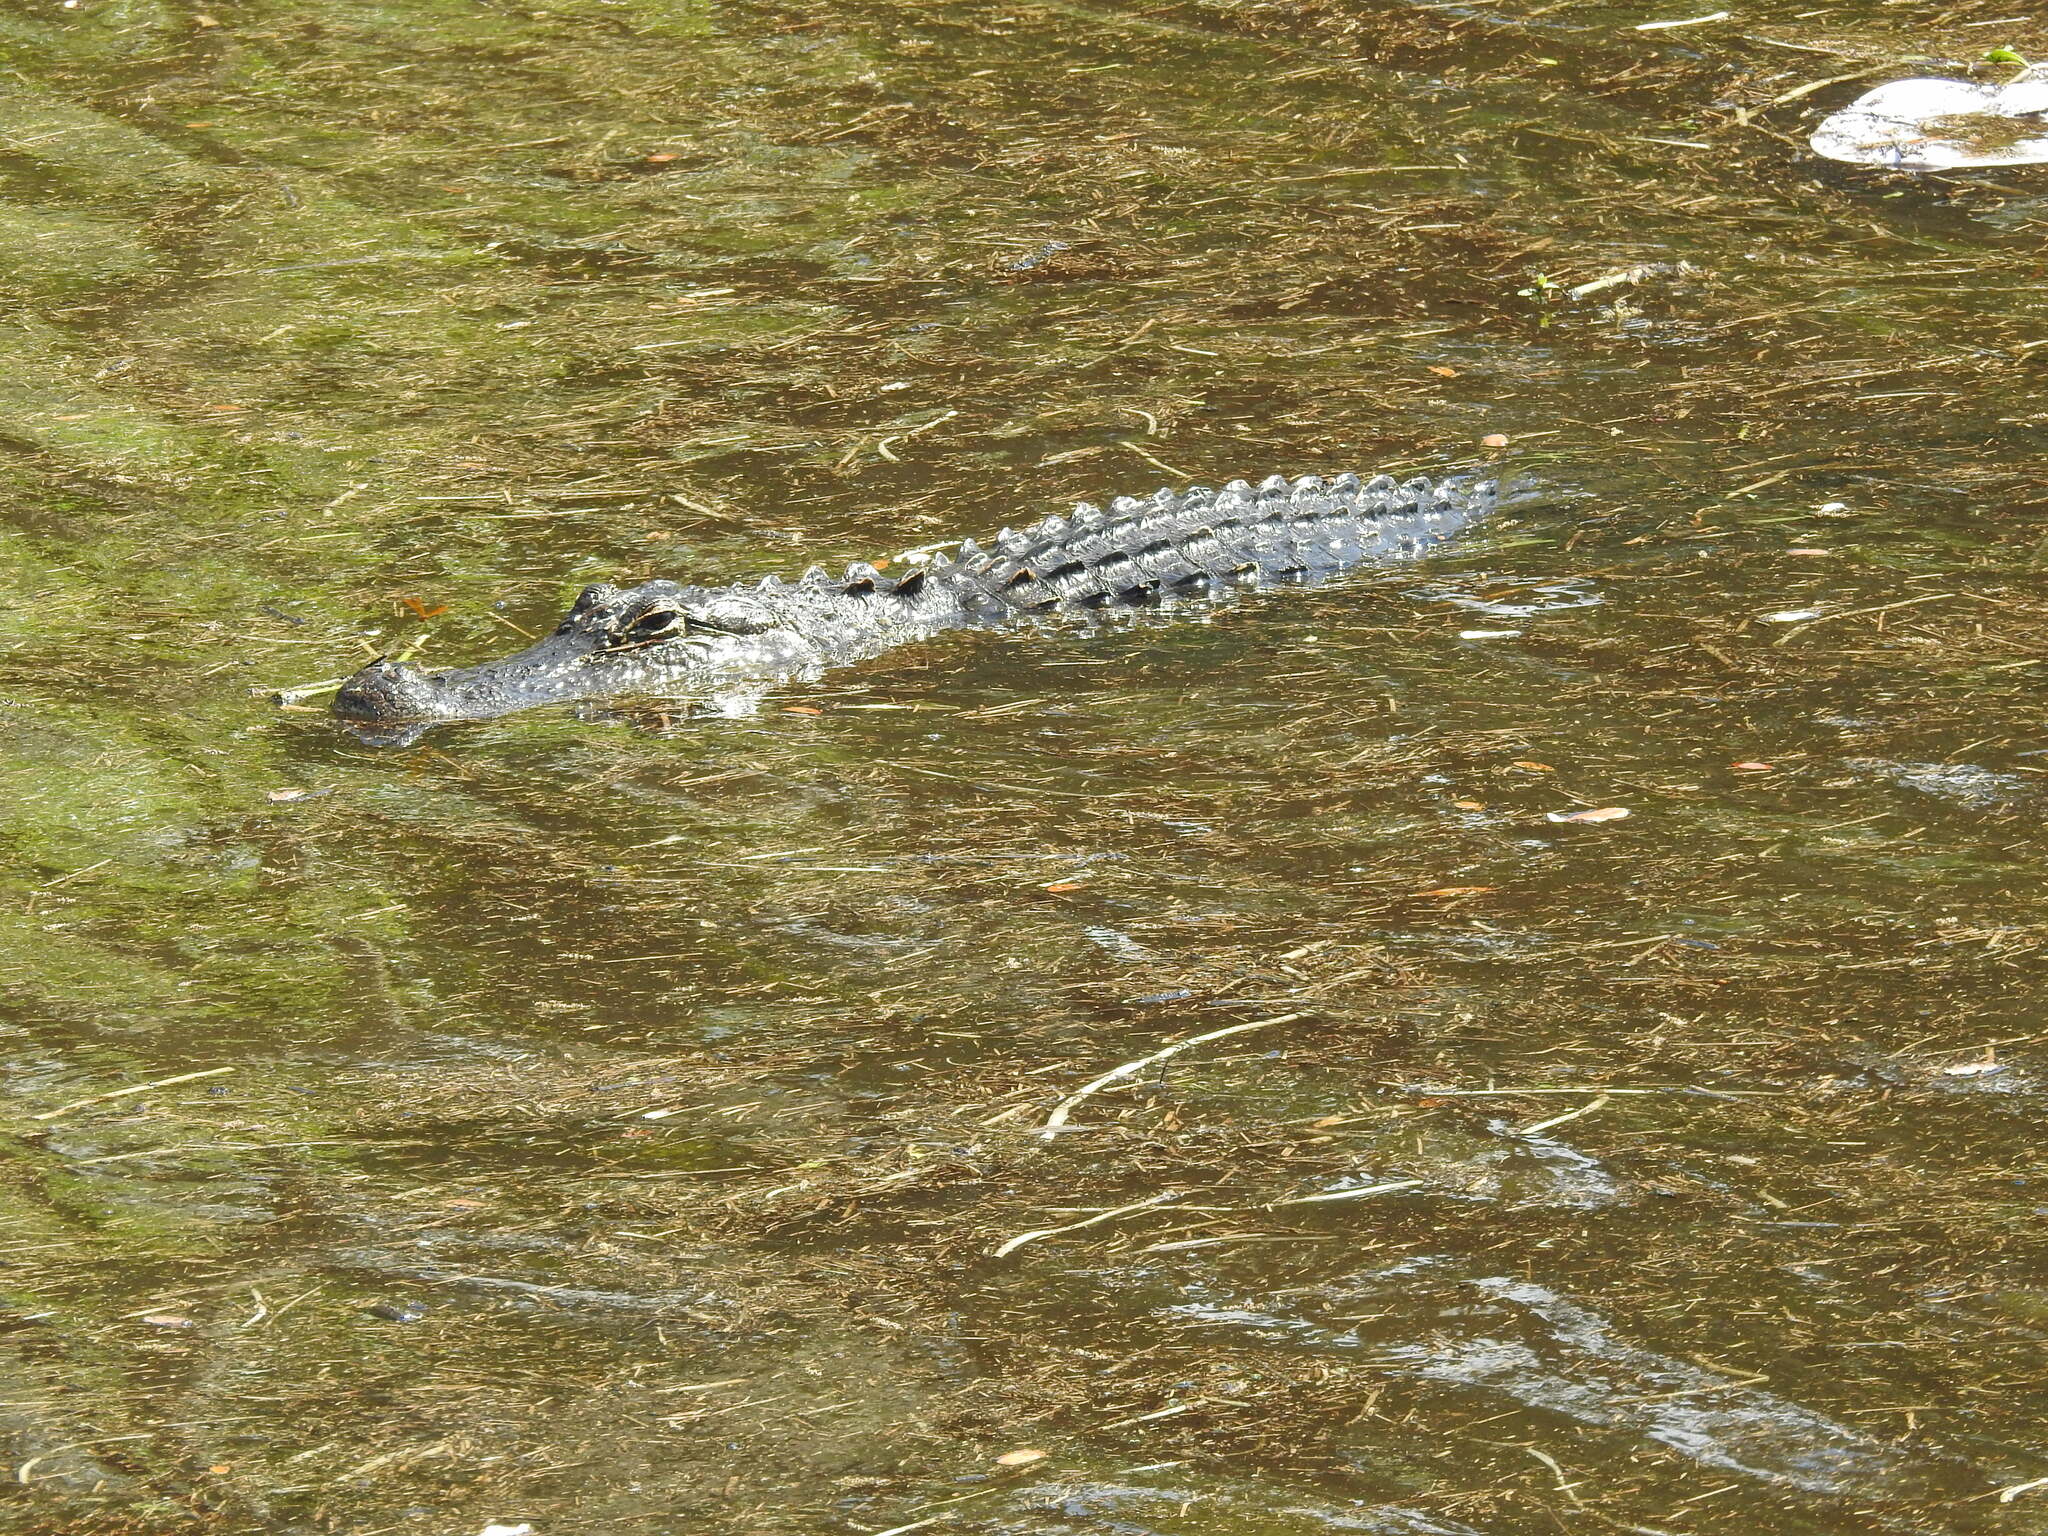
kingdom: Animalia
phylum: Chordata
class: Crocodylia
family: Alligatoridae
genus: Alligator
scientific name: Alligator mississippiensis
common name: American alligator
